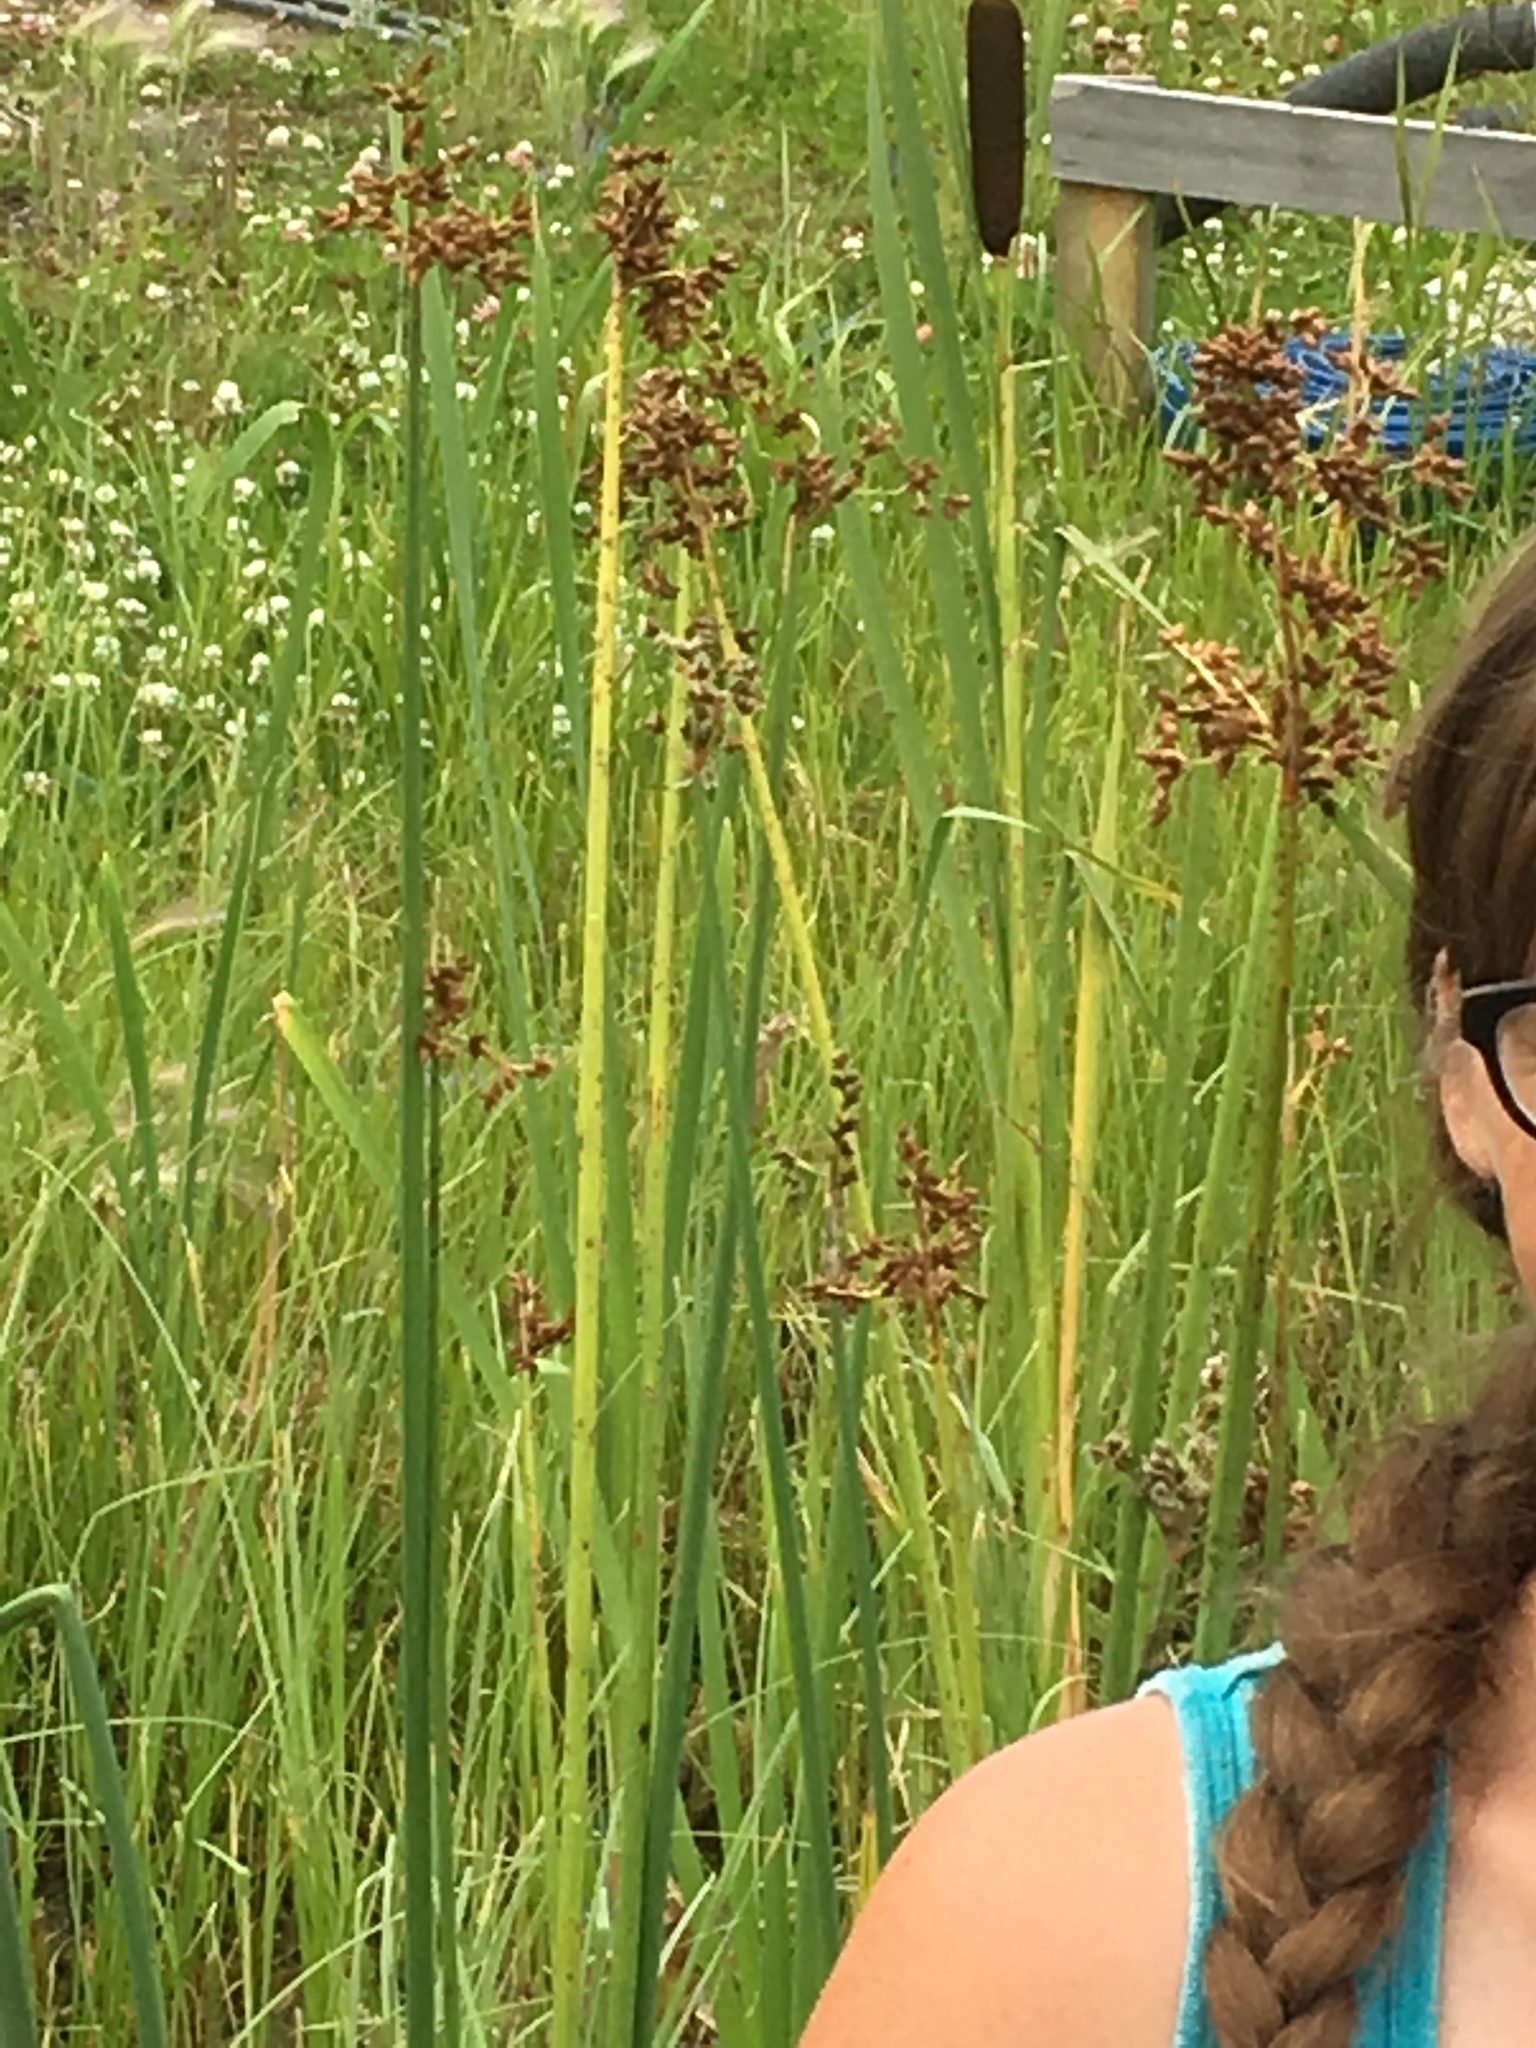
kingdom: Plantae
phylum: Tracheophyta
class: Liliopsida
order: Poales
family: Cyperaceae
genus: Schoenoplectus
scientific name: Schoenoplectus tabernaemontani
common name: Grey club-rush
